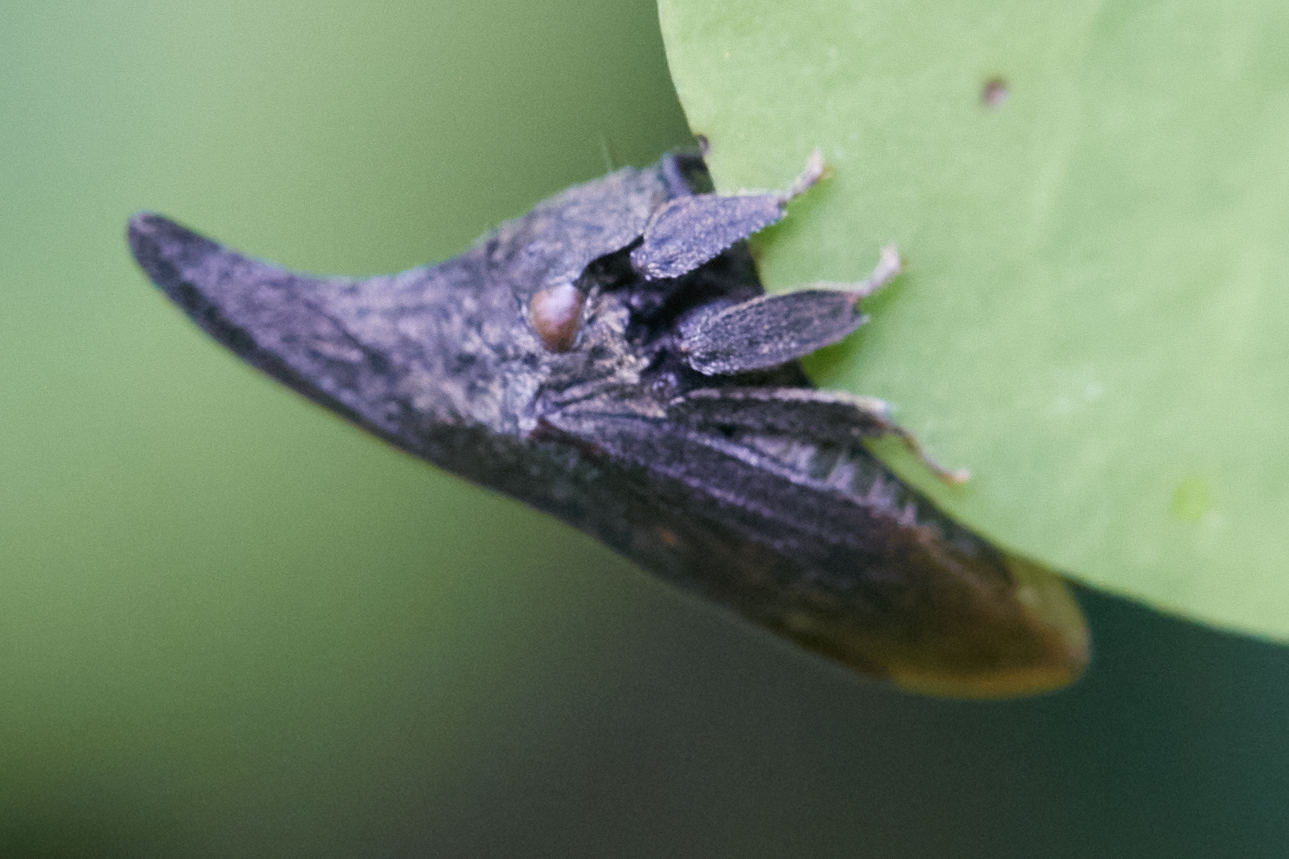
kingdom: Animalia
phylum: Arthropoda
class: Insecta
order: Hemiptera
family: Membracidae
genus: Enchenopa
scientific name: Enchenopa latipes
